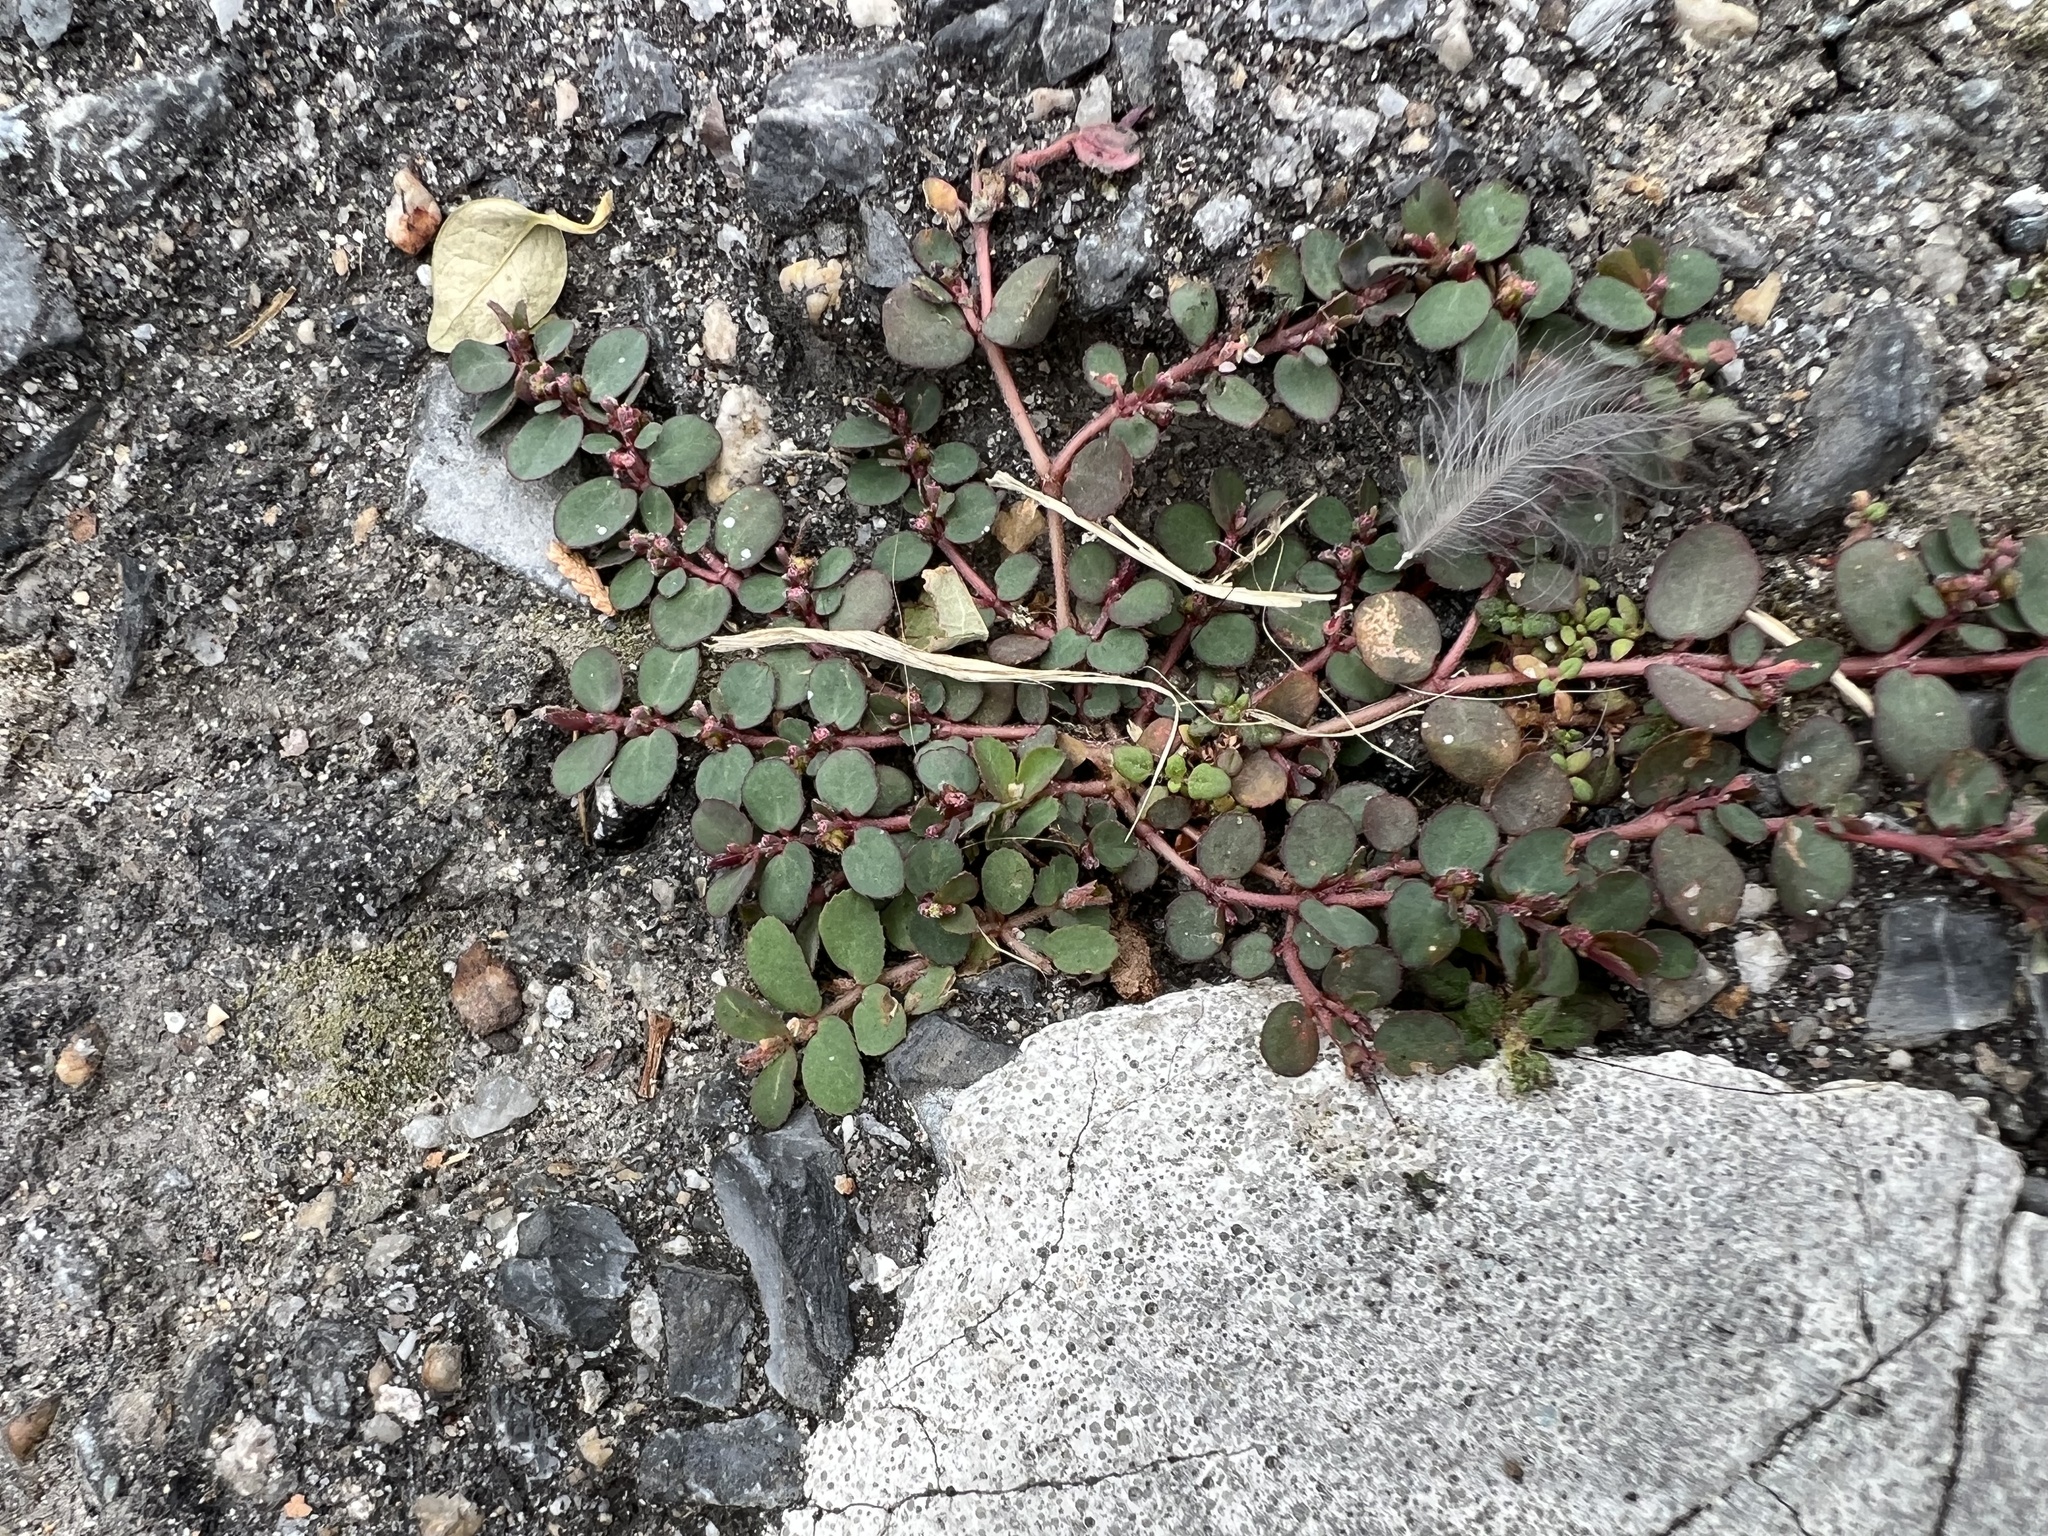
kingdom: Plantae
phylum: Tracheophyta
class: Magnoliopsida
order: Malpighiales
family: Euphorbiaceae
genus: Euphorbia
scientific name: Euphorbia prostrata
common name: Prostrate sandmat
